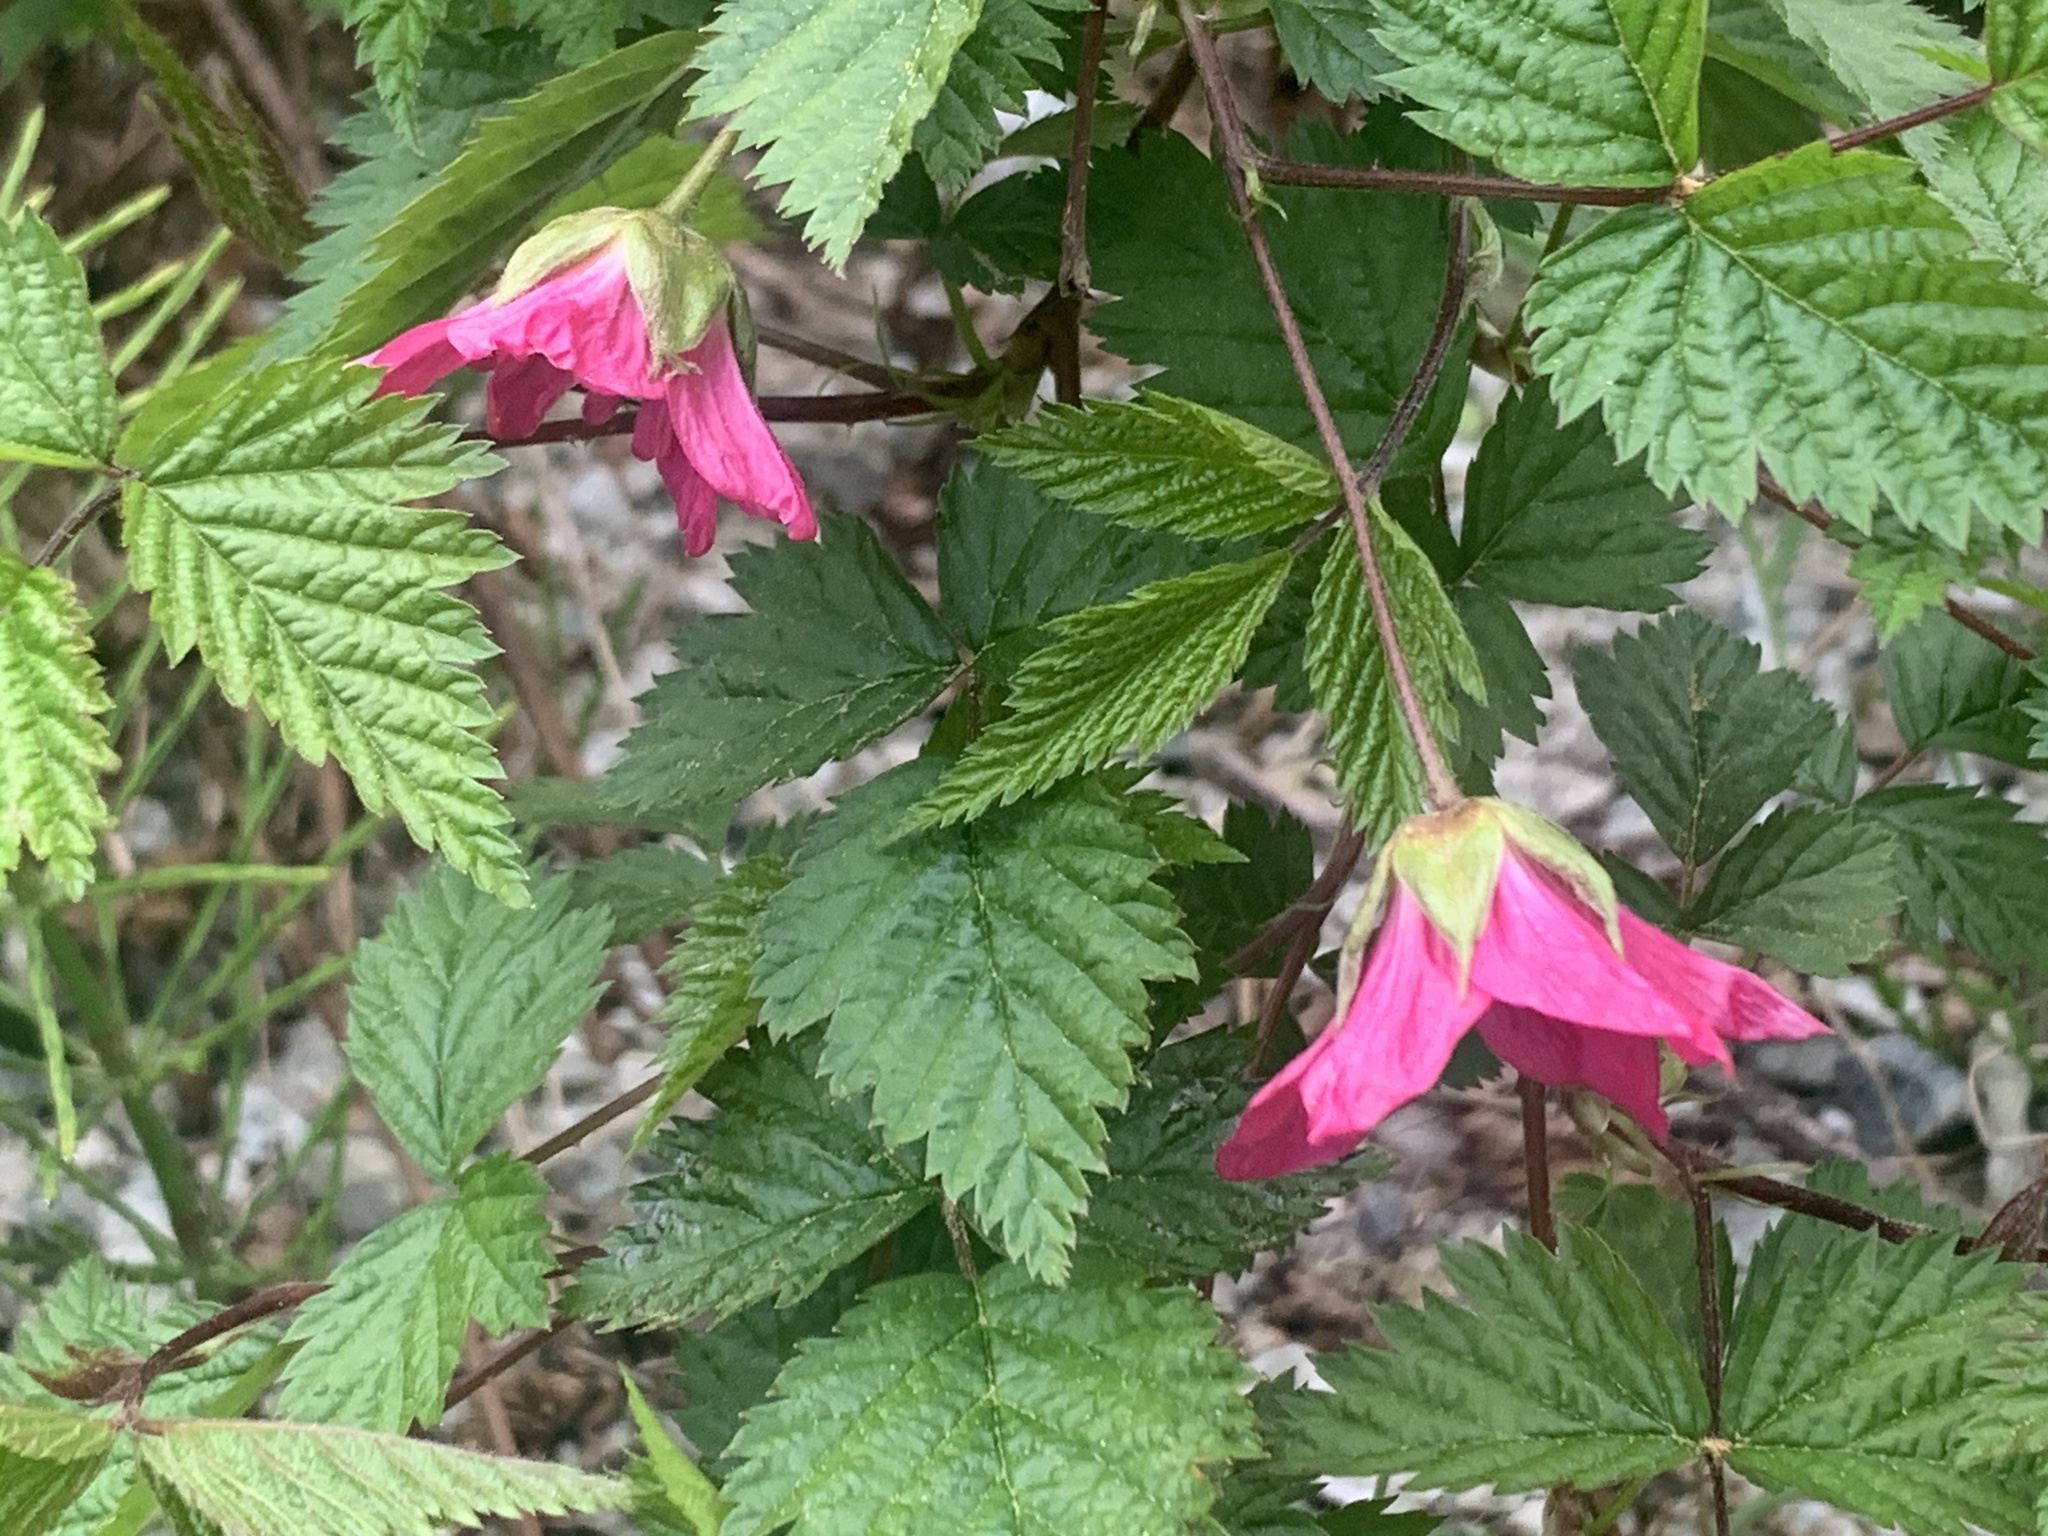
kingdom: Plantae
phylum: Tracheophyta
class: Magnoliopsida
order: Rosales
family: Rosaceae
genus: Rubus
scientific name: Rubus spectabilis
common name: Salmonberry
